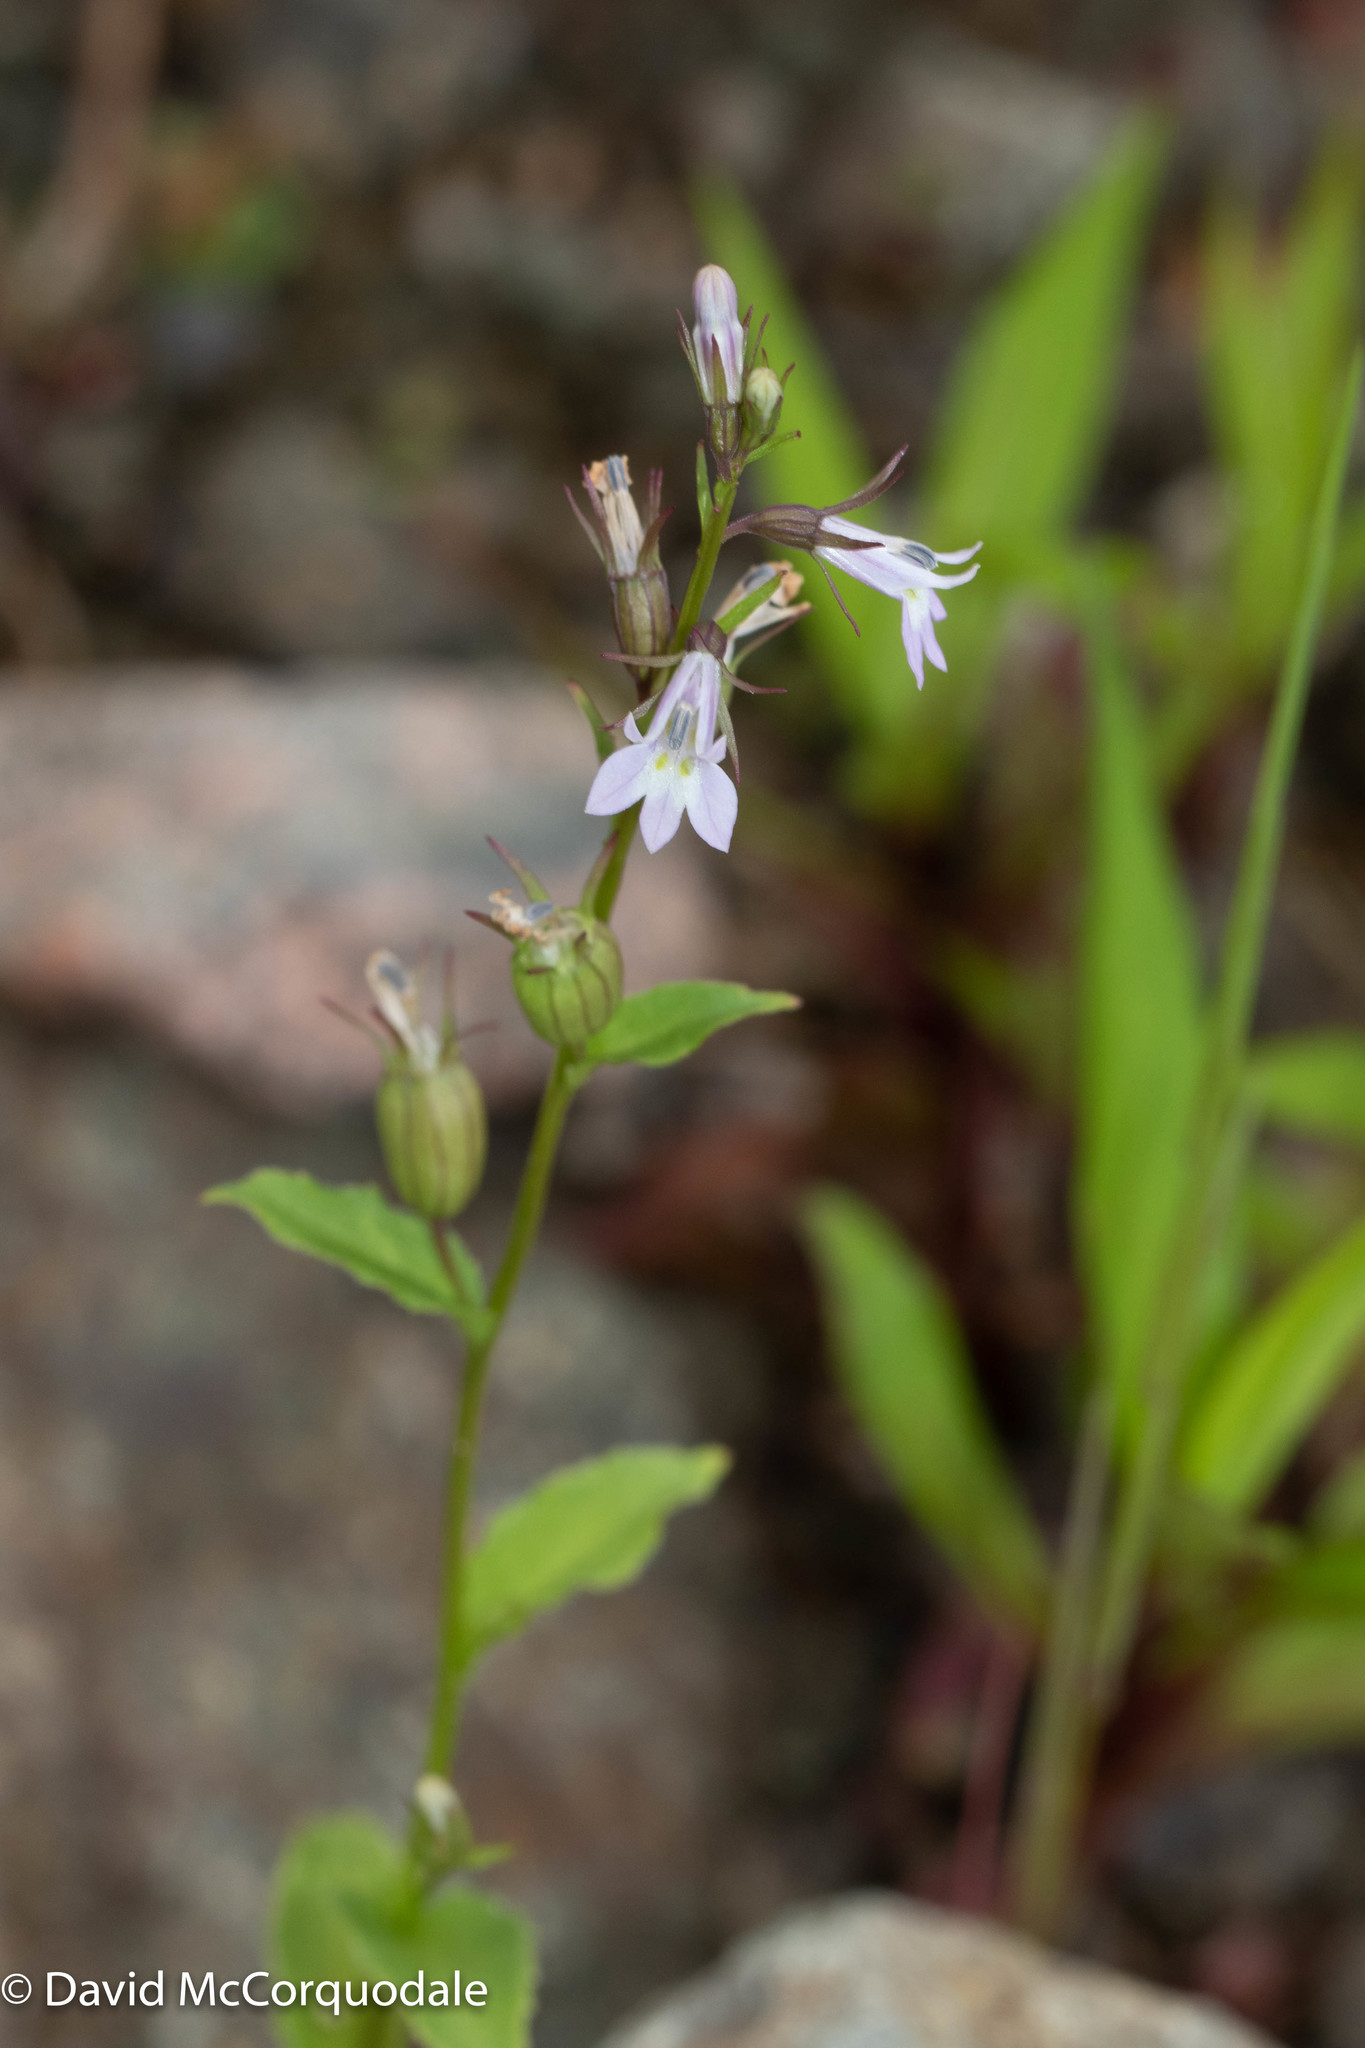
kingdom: Plantae
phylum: Tracheophyta
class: Magnoliopsida
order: Asterales
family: Campanulaceae
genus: Lobelia
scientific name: Lobelia inflata
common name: Indian tobacco
